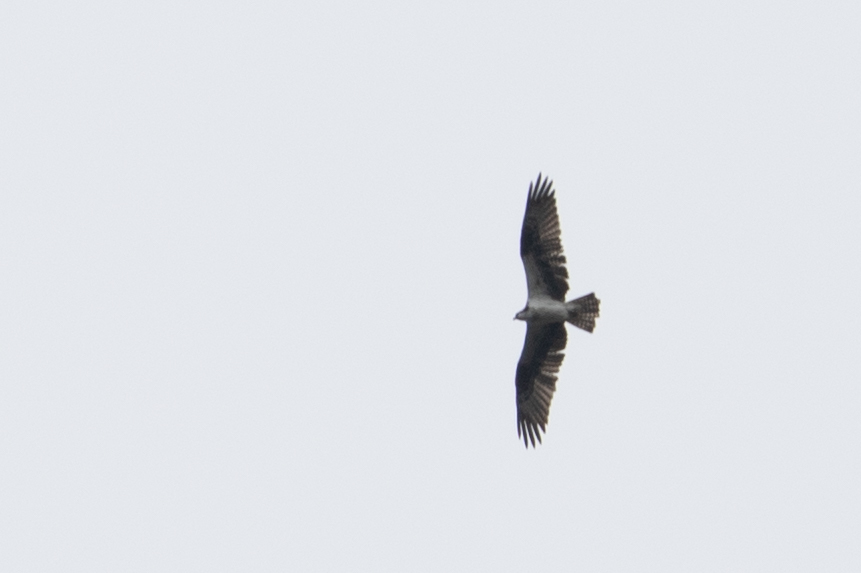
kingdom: Animalia
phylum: Chordata
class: Aves
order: Accipitriformes
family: Pandionidae
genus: Pandion
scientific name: Pandion haliaetus
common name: Osprey
